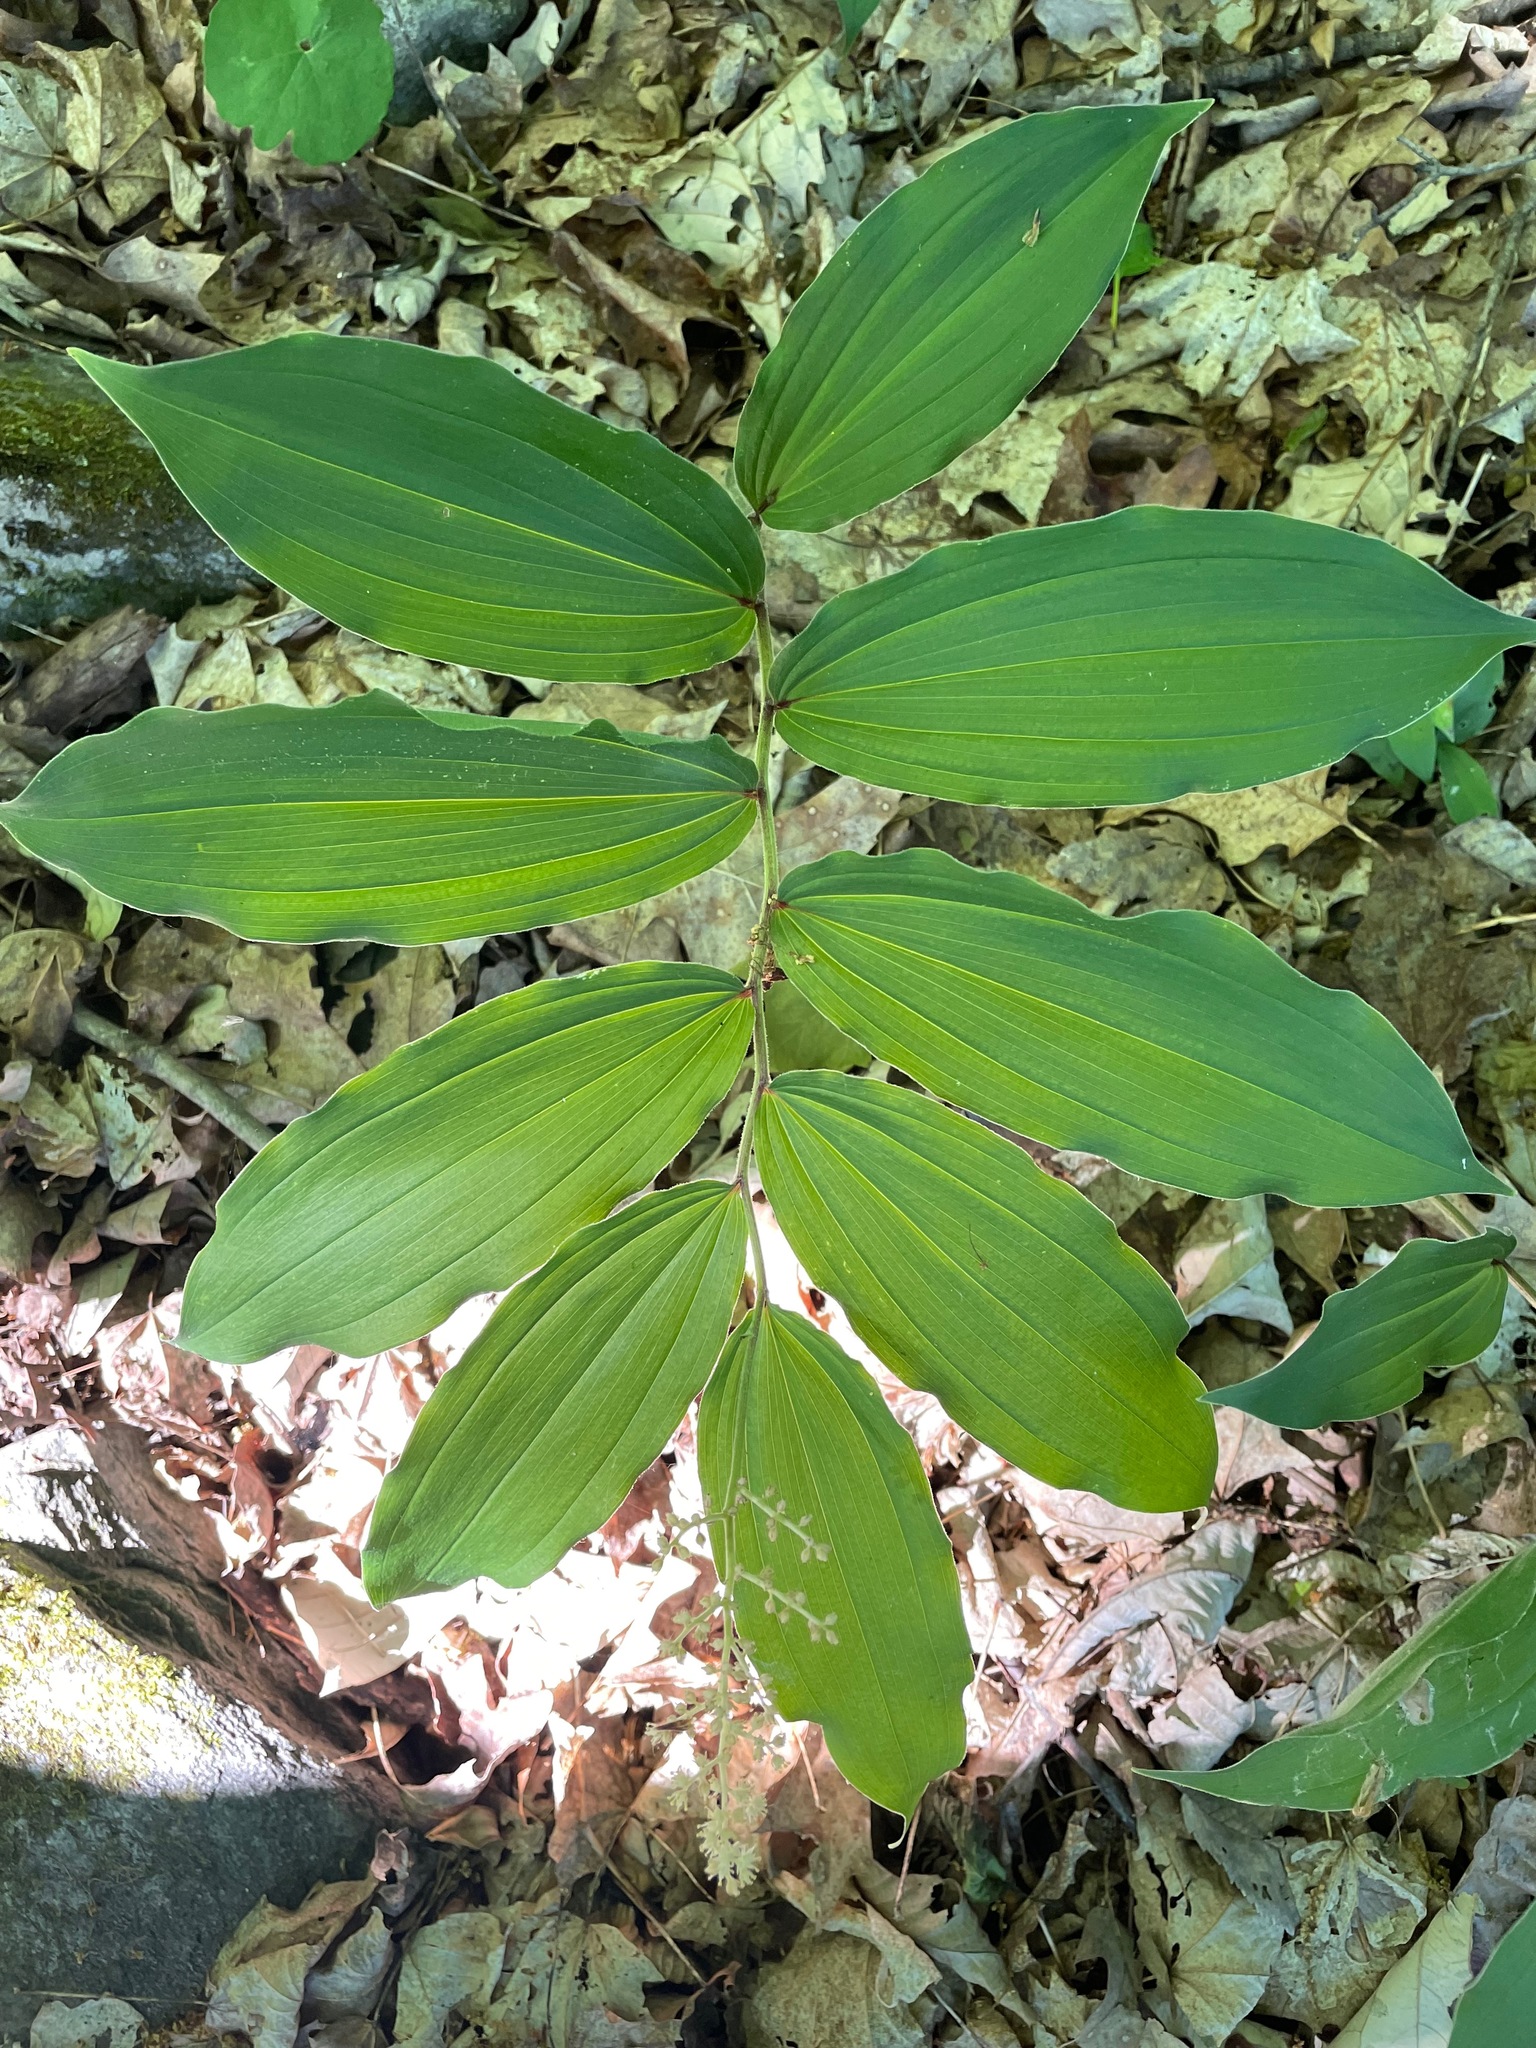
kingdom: Plantae
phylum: Tracheophyta
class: Liliopsida
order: Asparagales
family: Asparagaceae
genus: Maianthemum
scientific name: Maianthemum racemosum
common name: False spikenard
